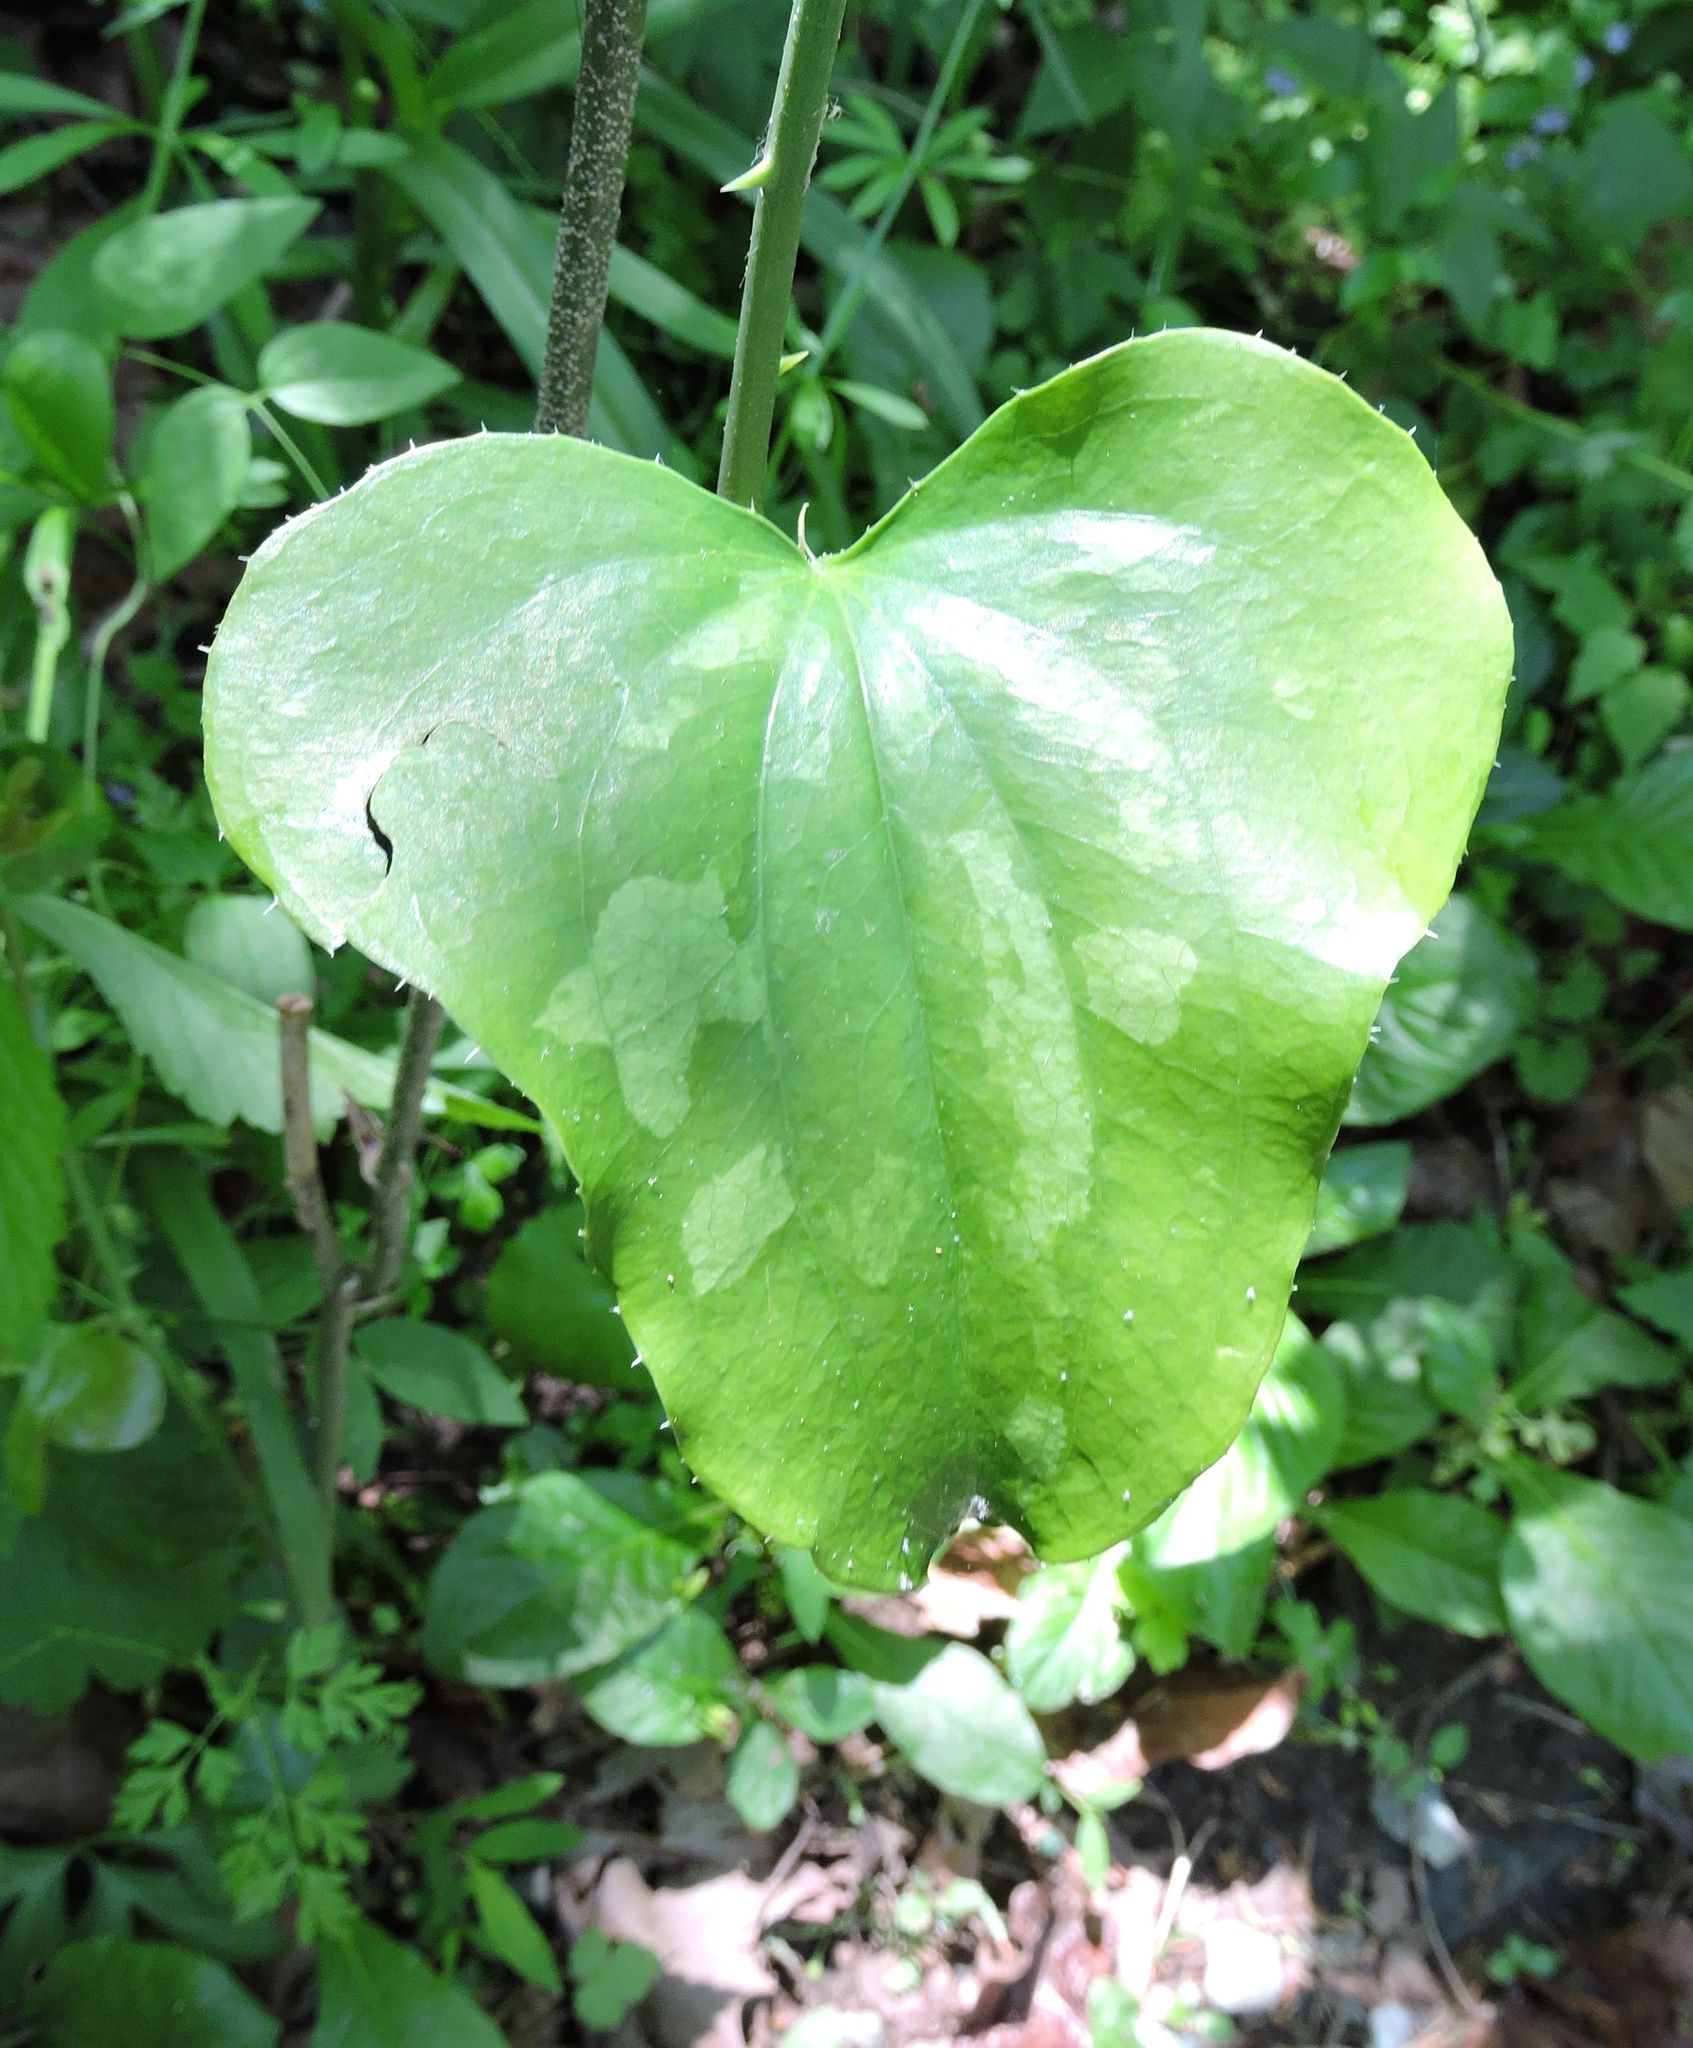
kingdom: Plantae
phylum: Tracheophyta
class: Liliopsida
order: Liliales
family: Smilacaceae
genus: Smilax
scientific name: Smilax bona-nox
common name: Catbrier
